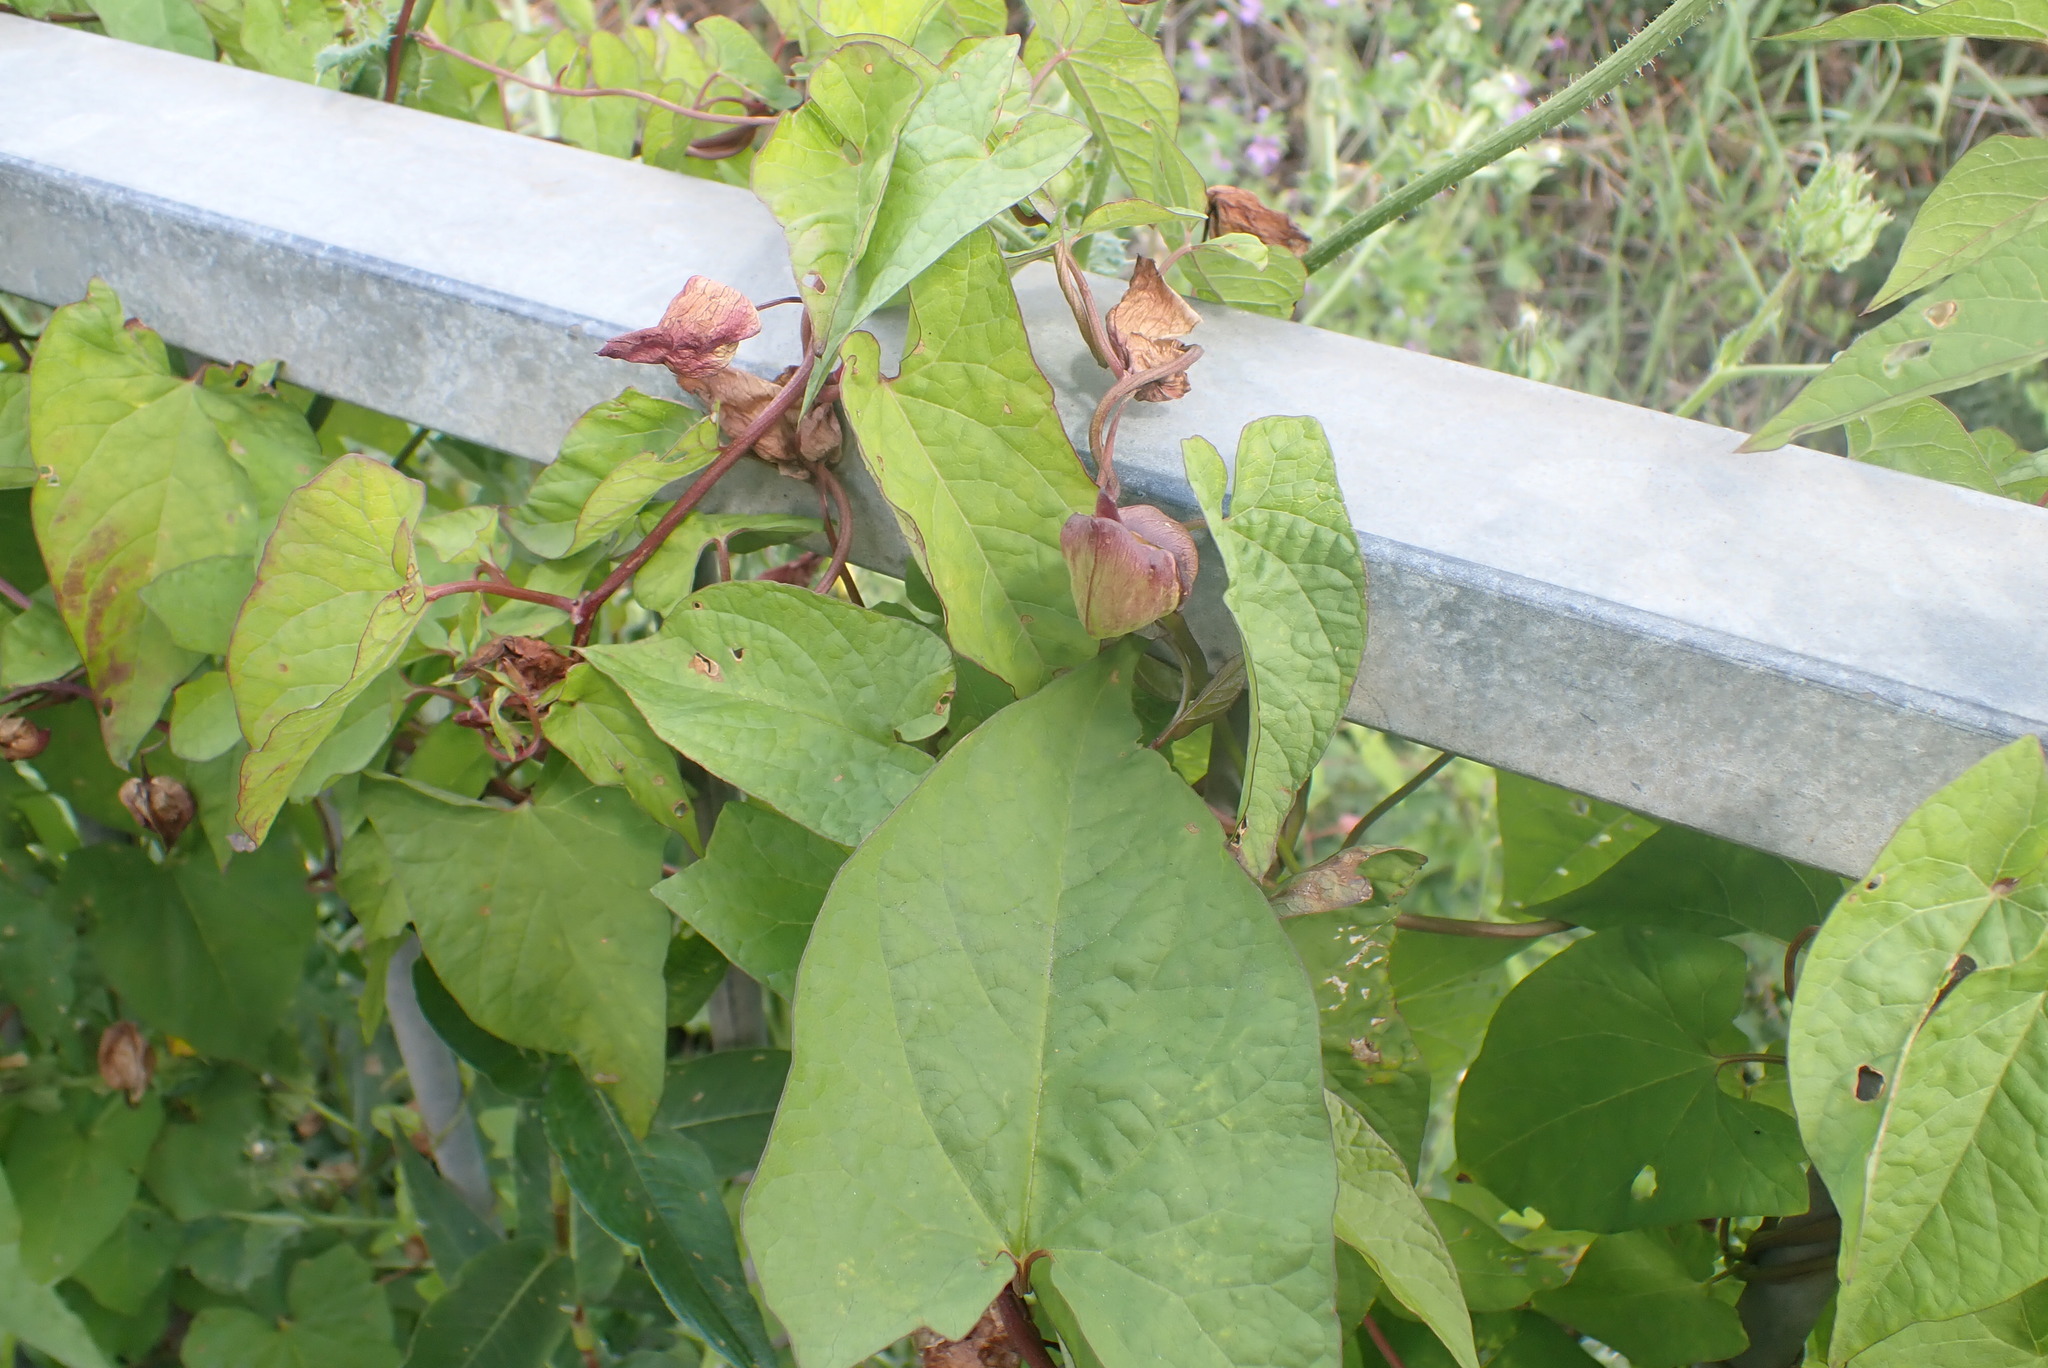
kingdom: Plantae
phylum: Tracheophyta
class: Magnoliopsida
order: Solanales
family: Convolvulaceae
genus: Calystegia
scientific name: Calystegia silvatica
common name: Large bindweed
